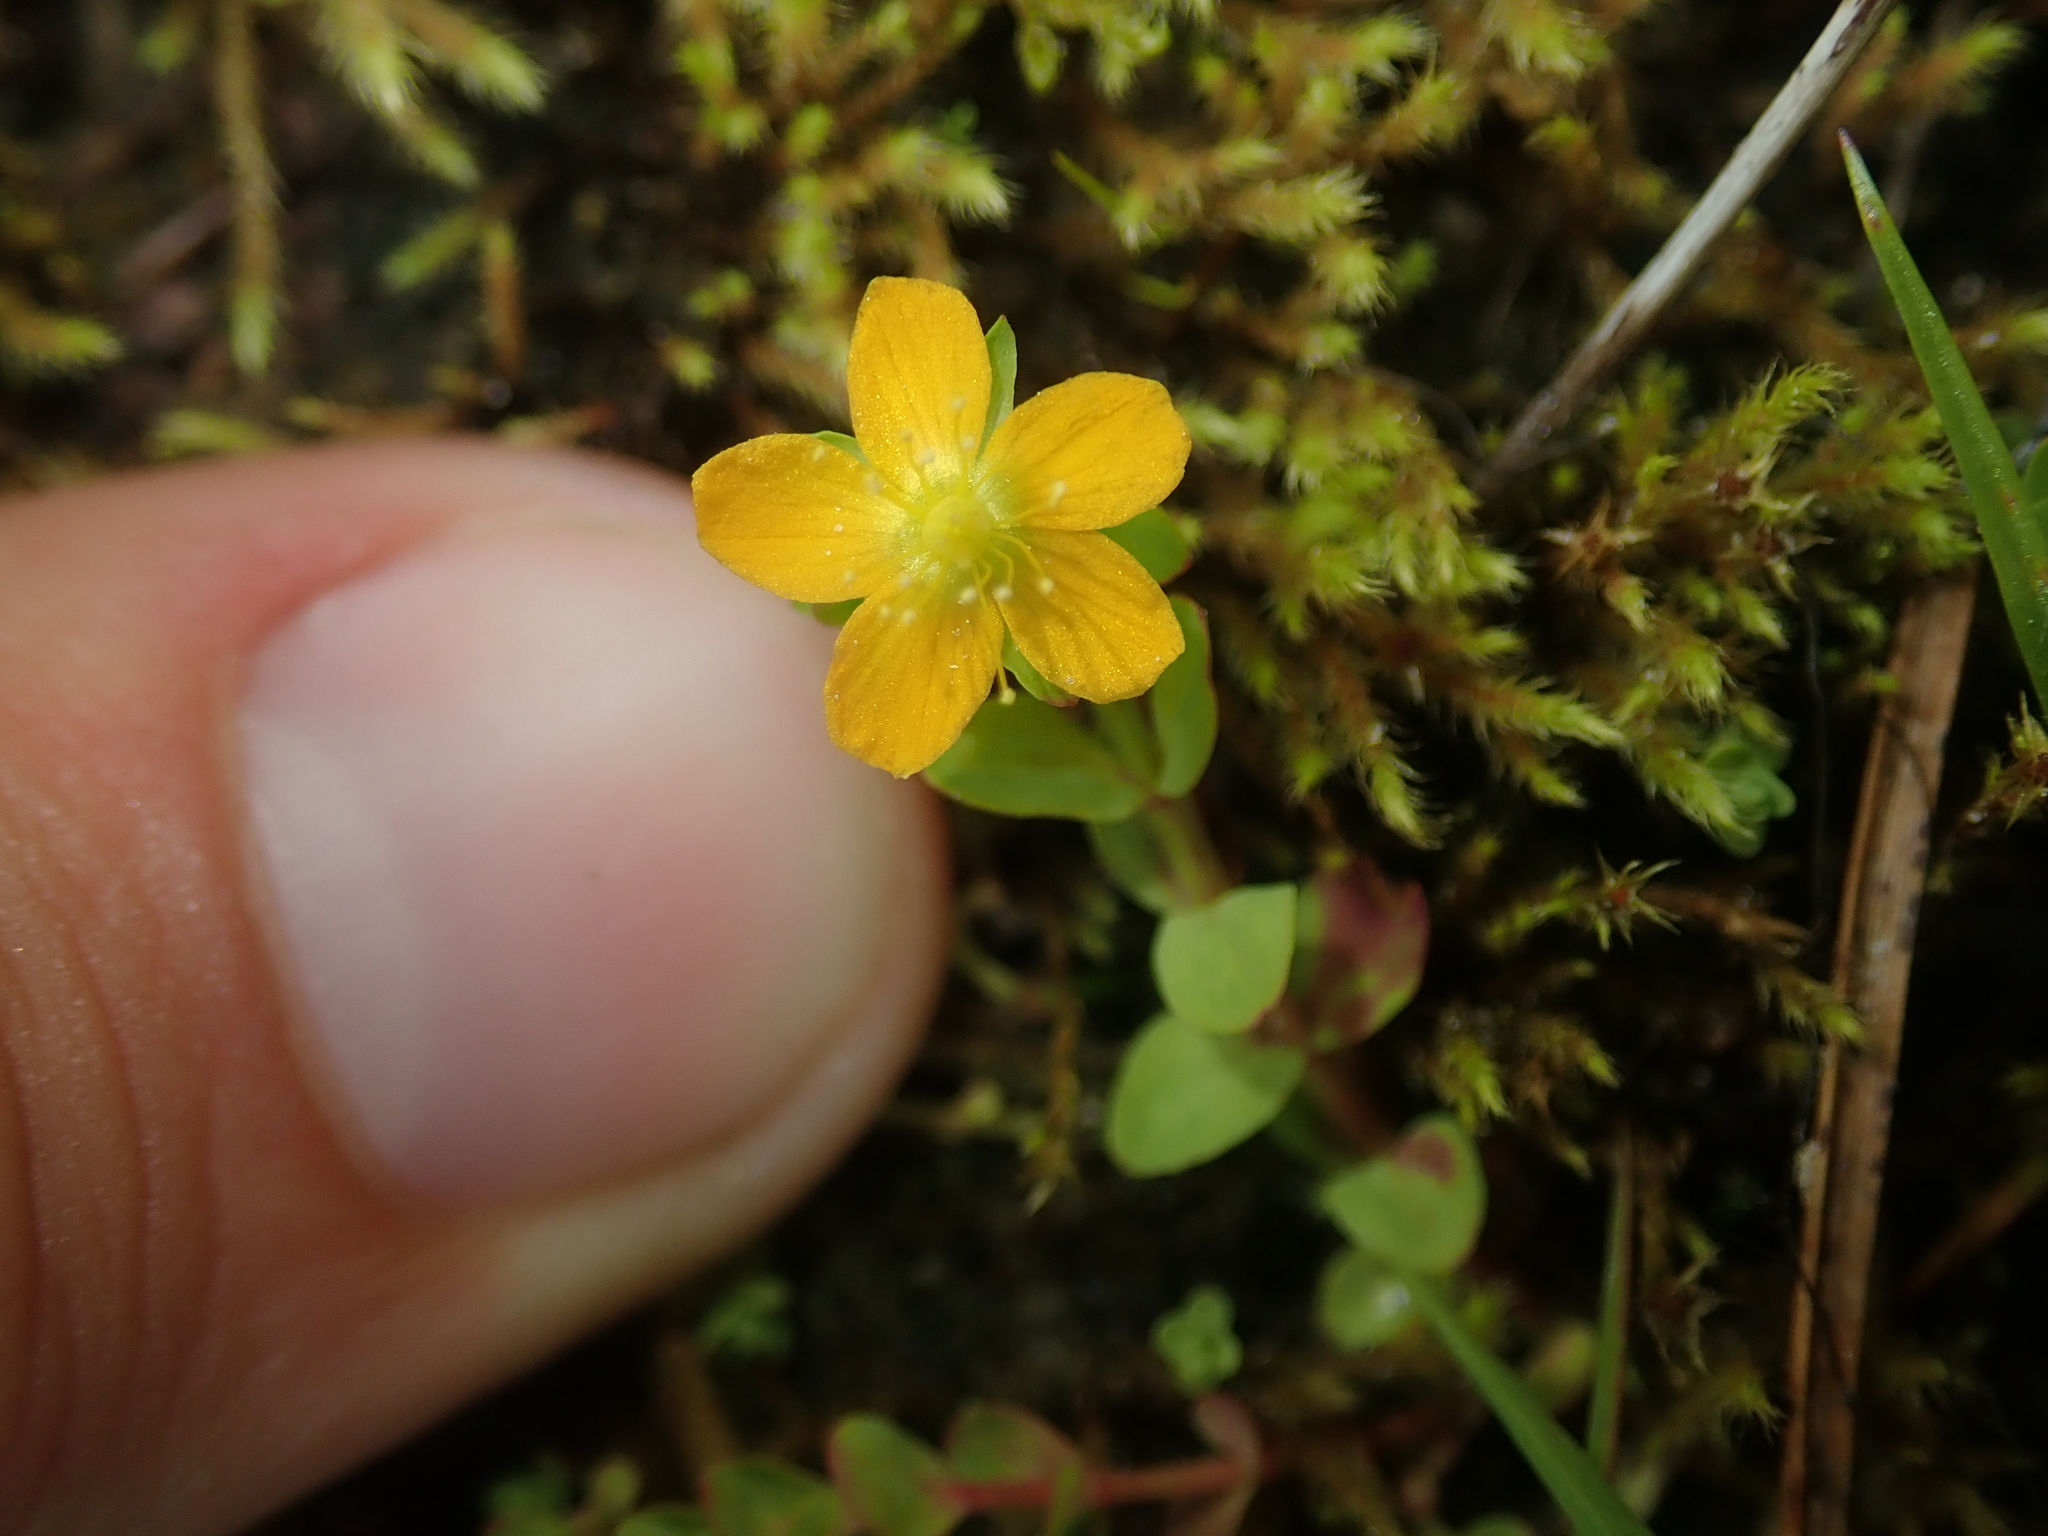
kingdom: Plantae
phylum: Tracheophyta
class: Magnoliopsida
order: Malpighiales
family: Hypericaceae
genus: Hypericum
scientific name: Hypericum anagalloides
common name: Bog st. john's-wort
